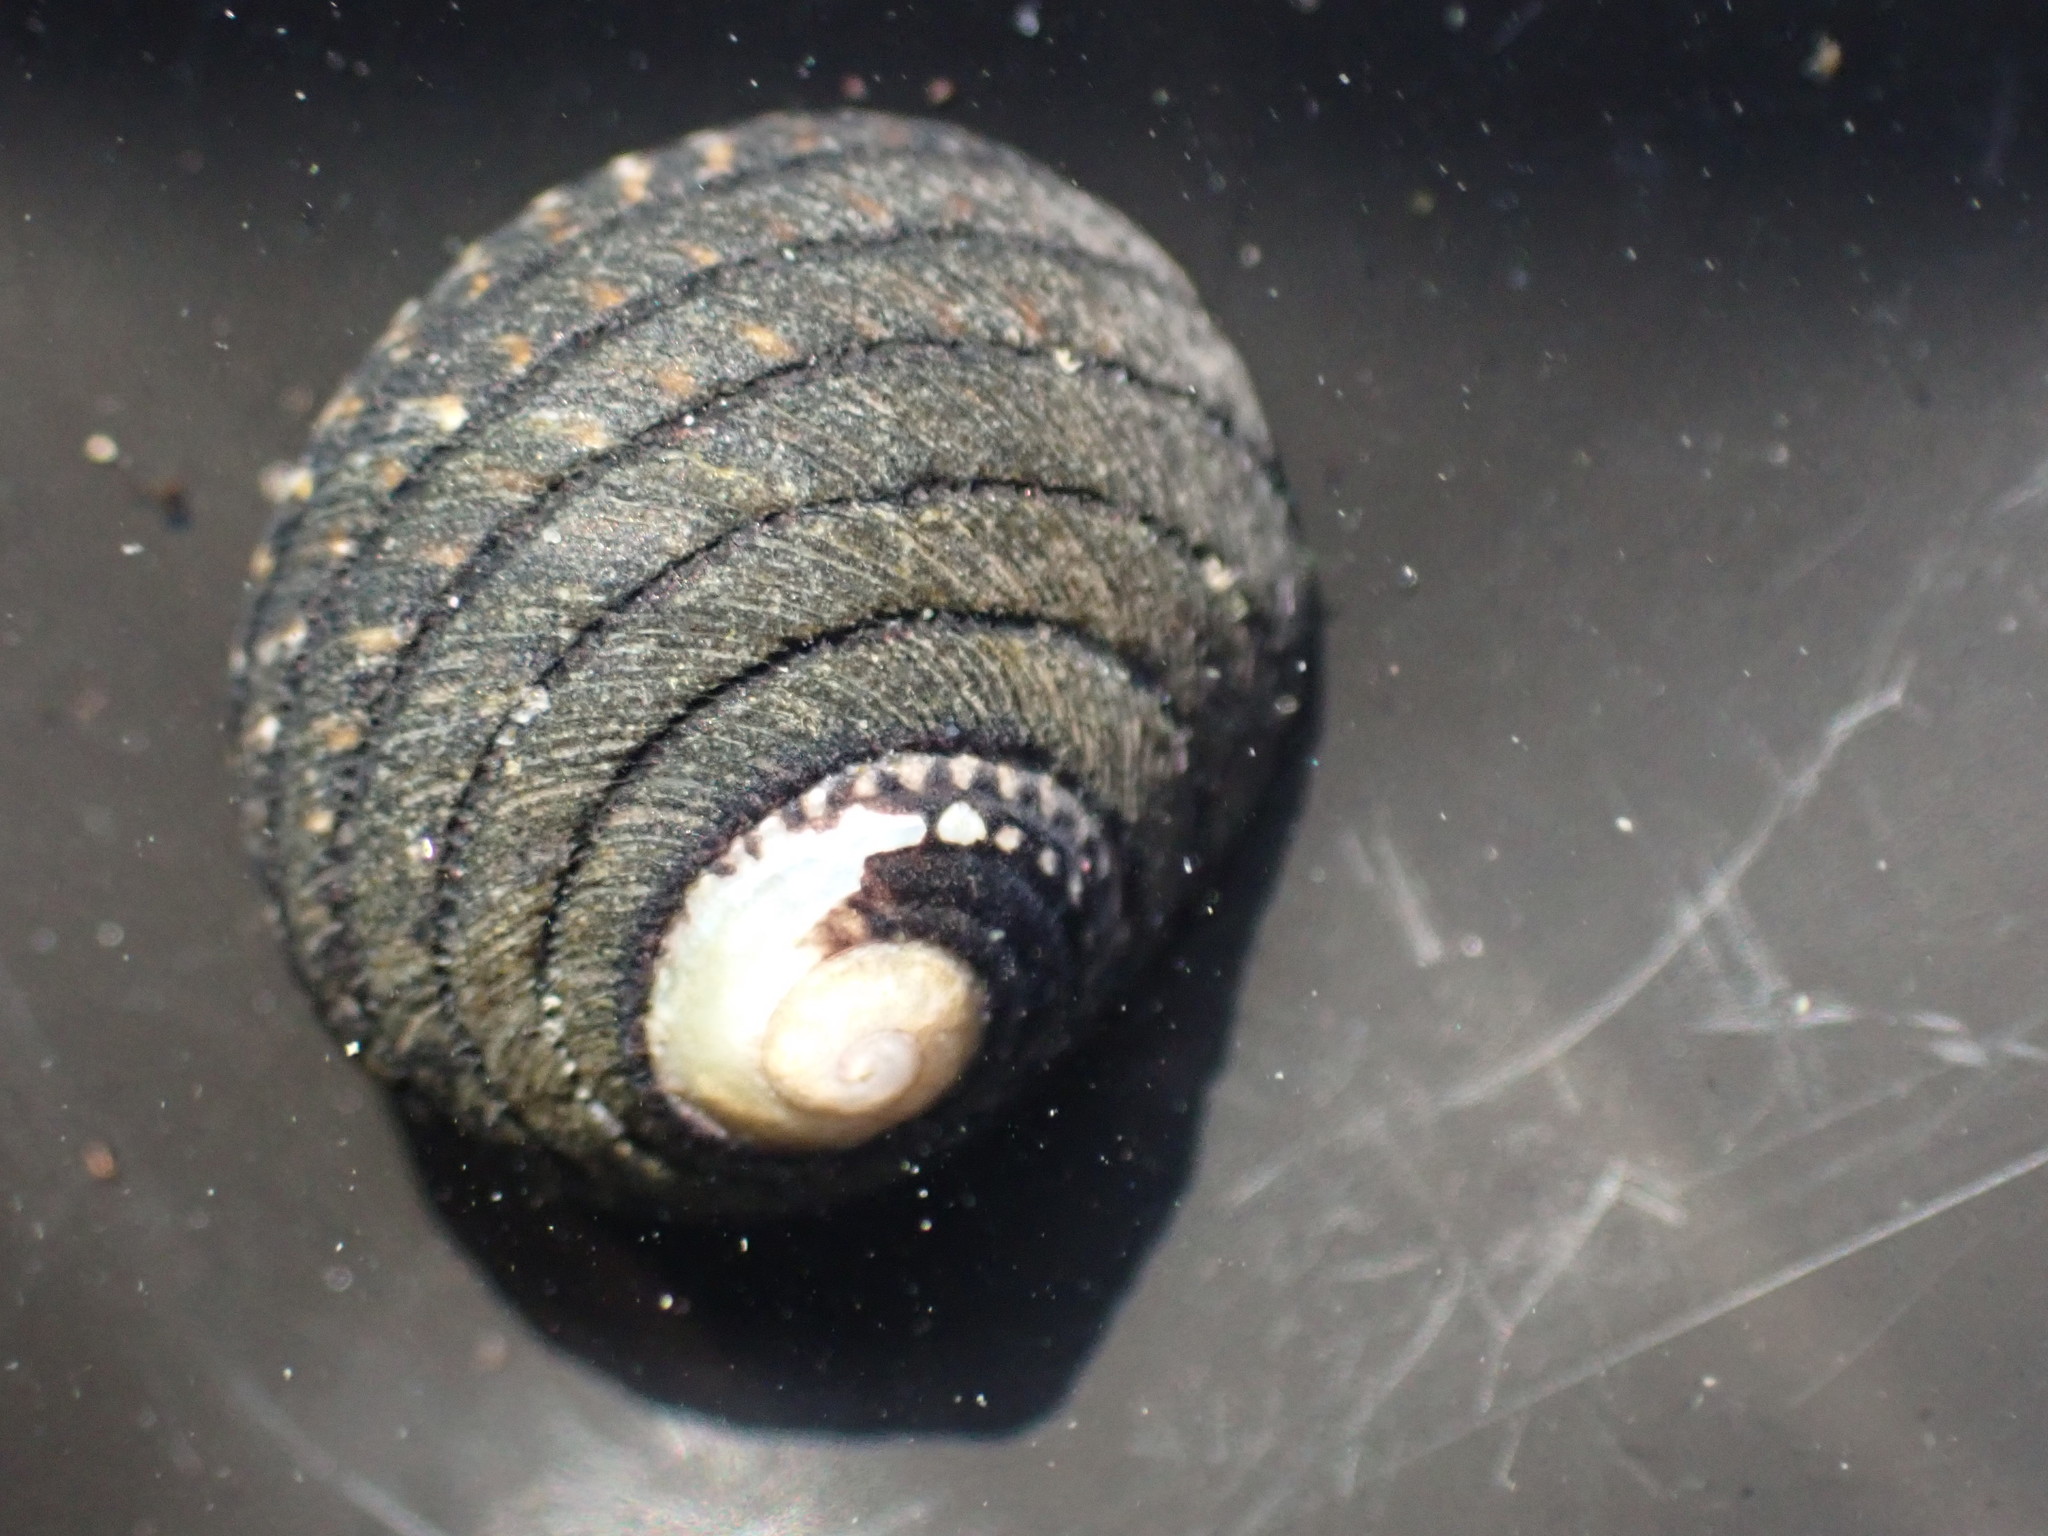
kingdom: Animalia
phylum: Mollusca
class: Gastropoda
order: Trochida
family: Trochidae
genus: Diloma
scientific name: Diloma aethiops
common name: Scorched monodont
